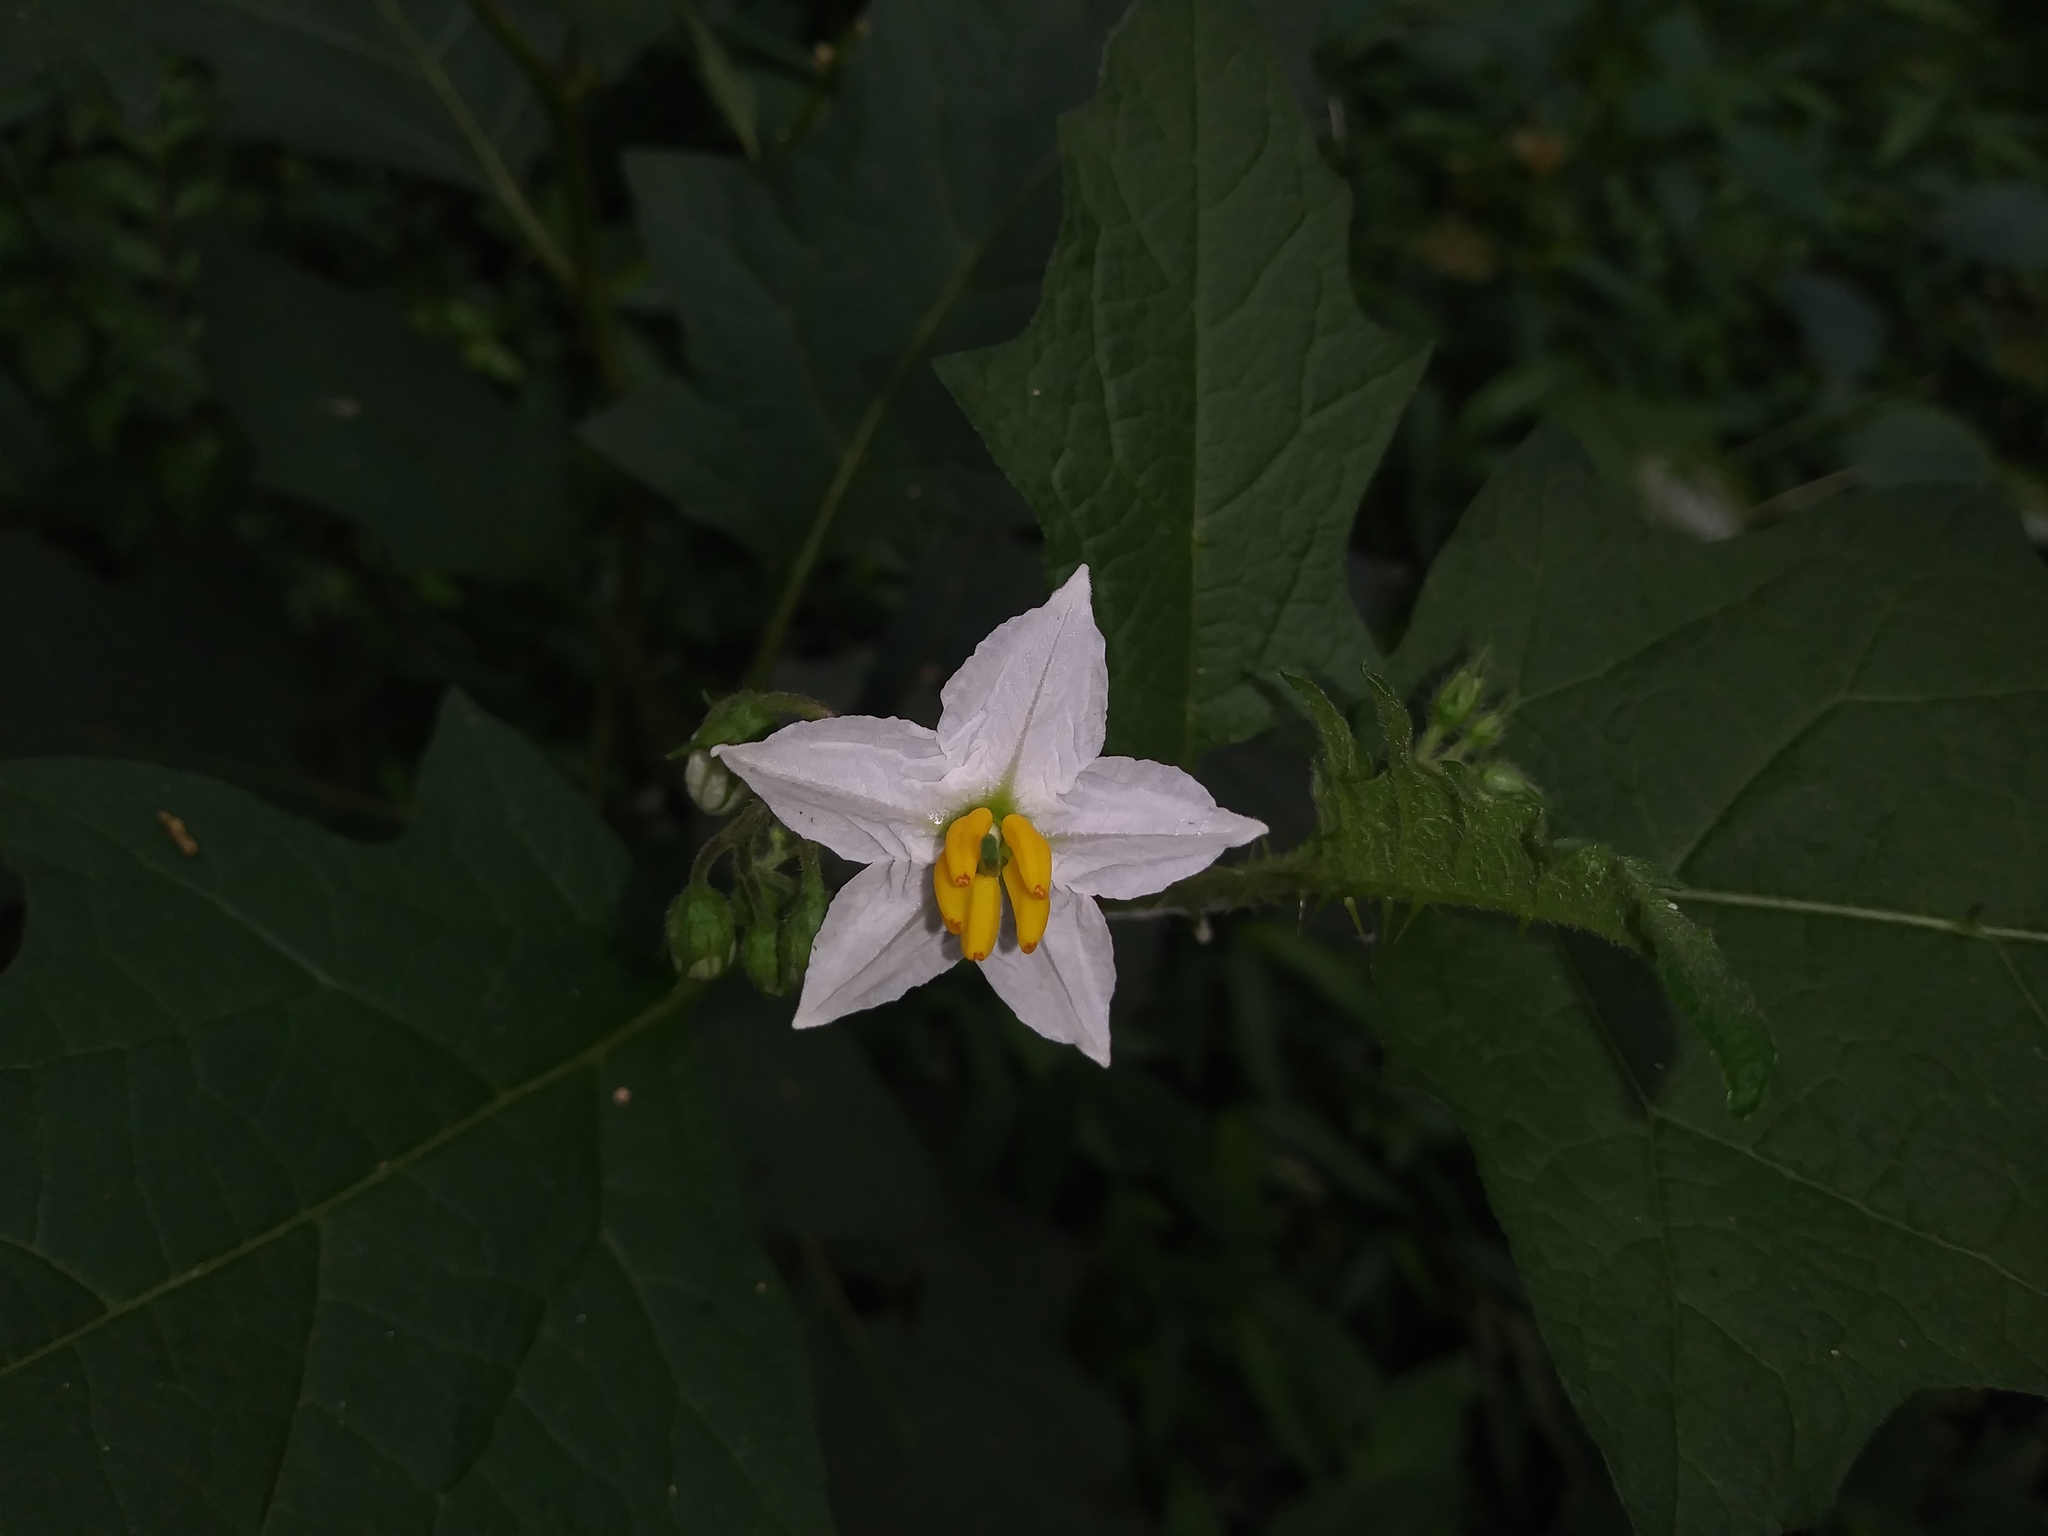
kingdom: Plantae
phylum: Tracheophyta
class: Magnoliopsida
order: Solanales
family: Solanaceae
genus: Solanum
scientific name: Solanum carolinense
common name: Horse-nettle
